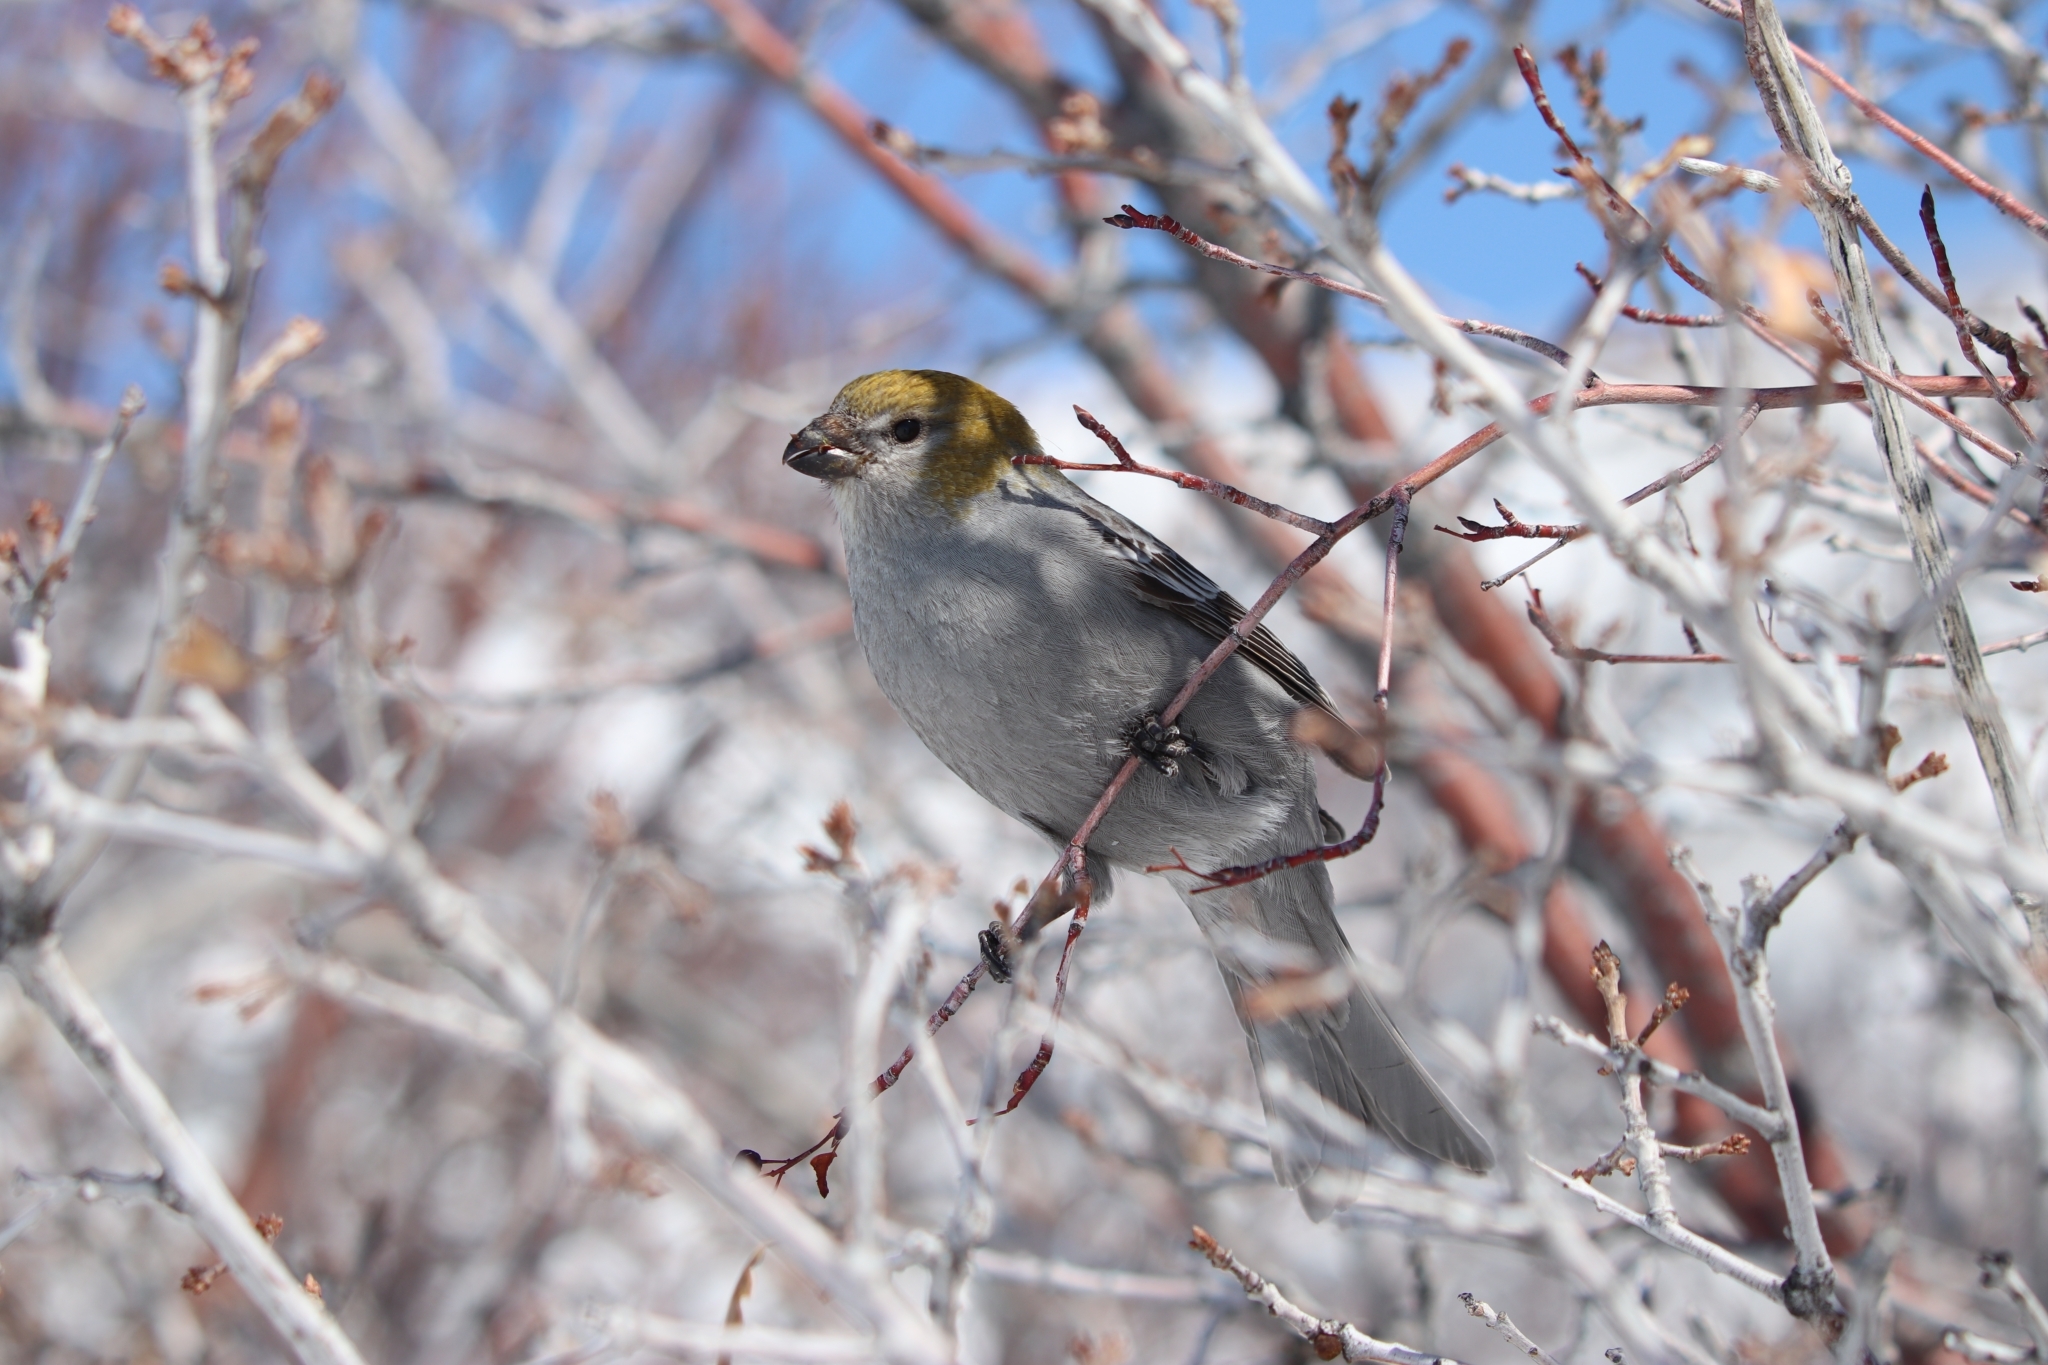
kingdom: Animalia
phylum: Chordata
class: Aves
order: Passeriformes
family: Fringillidae
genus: Pinicola
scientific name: Pinicola enucleator
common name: Pine grosbeak
